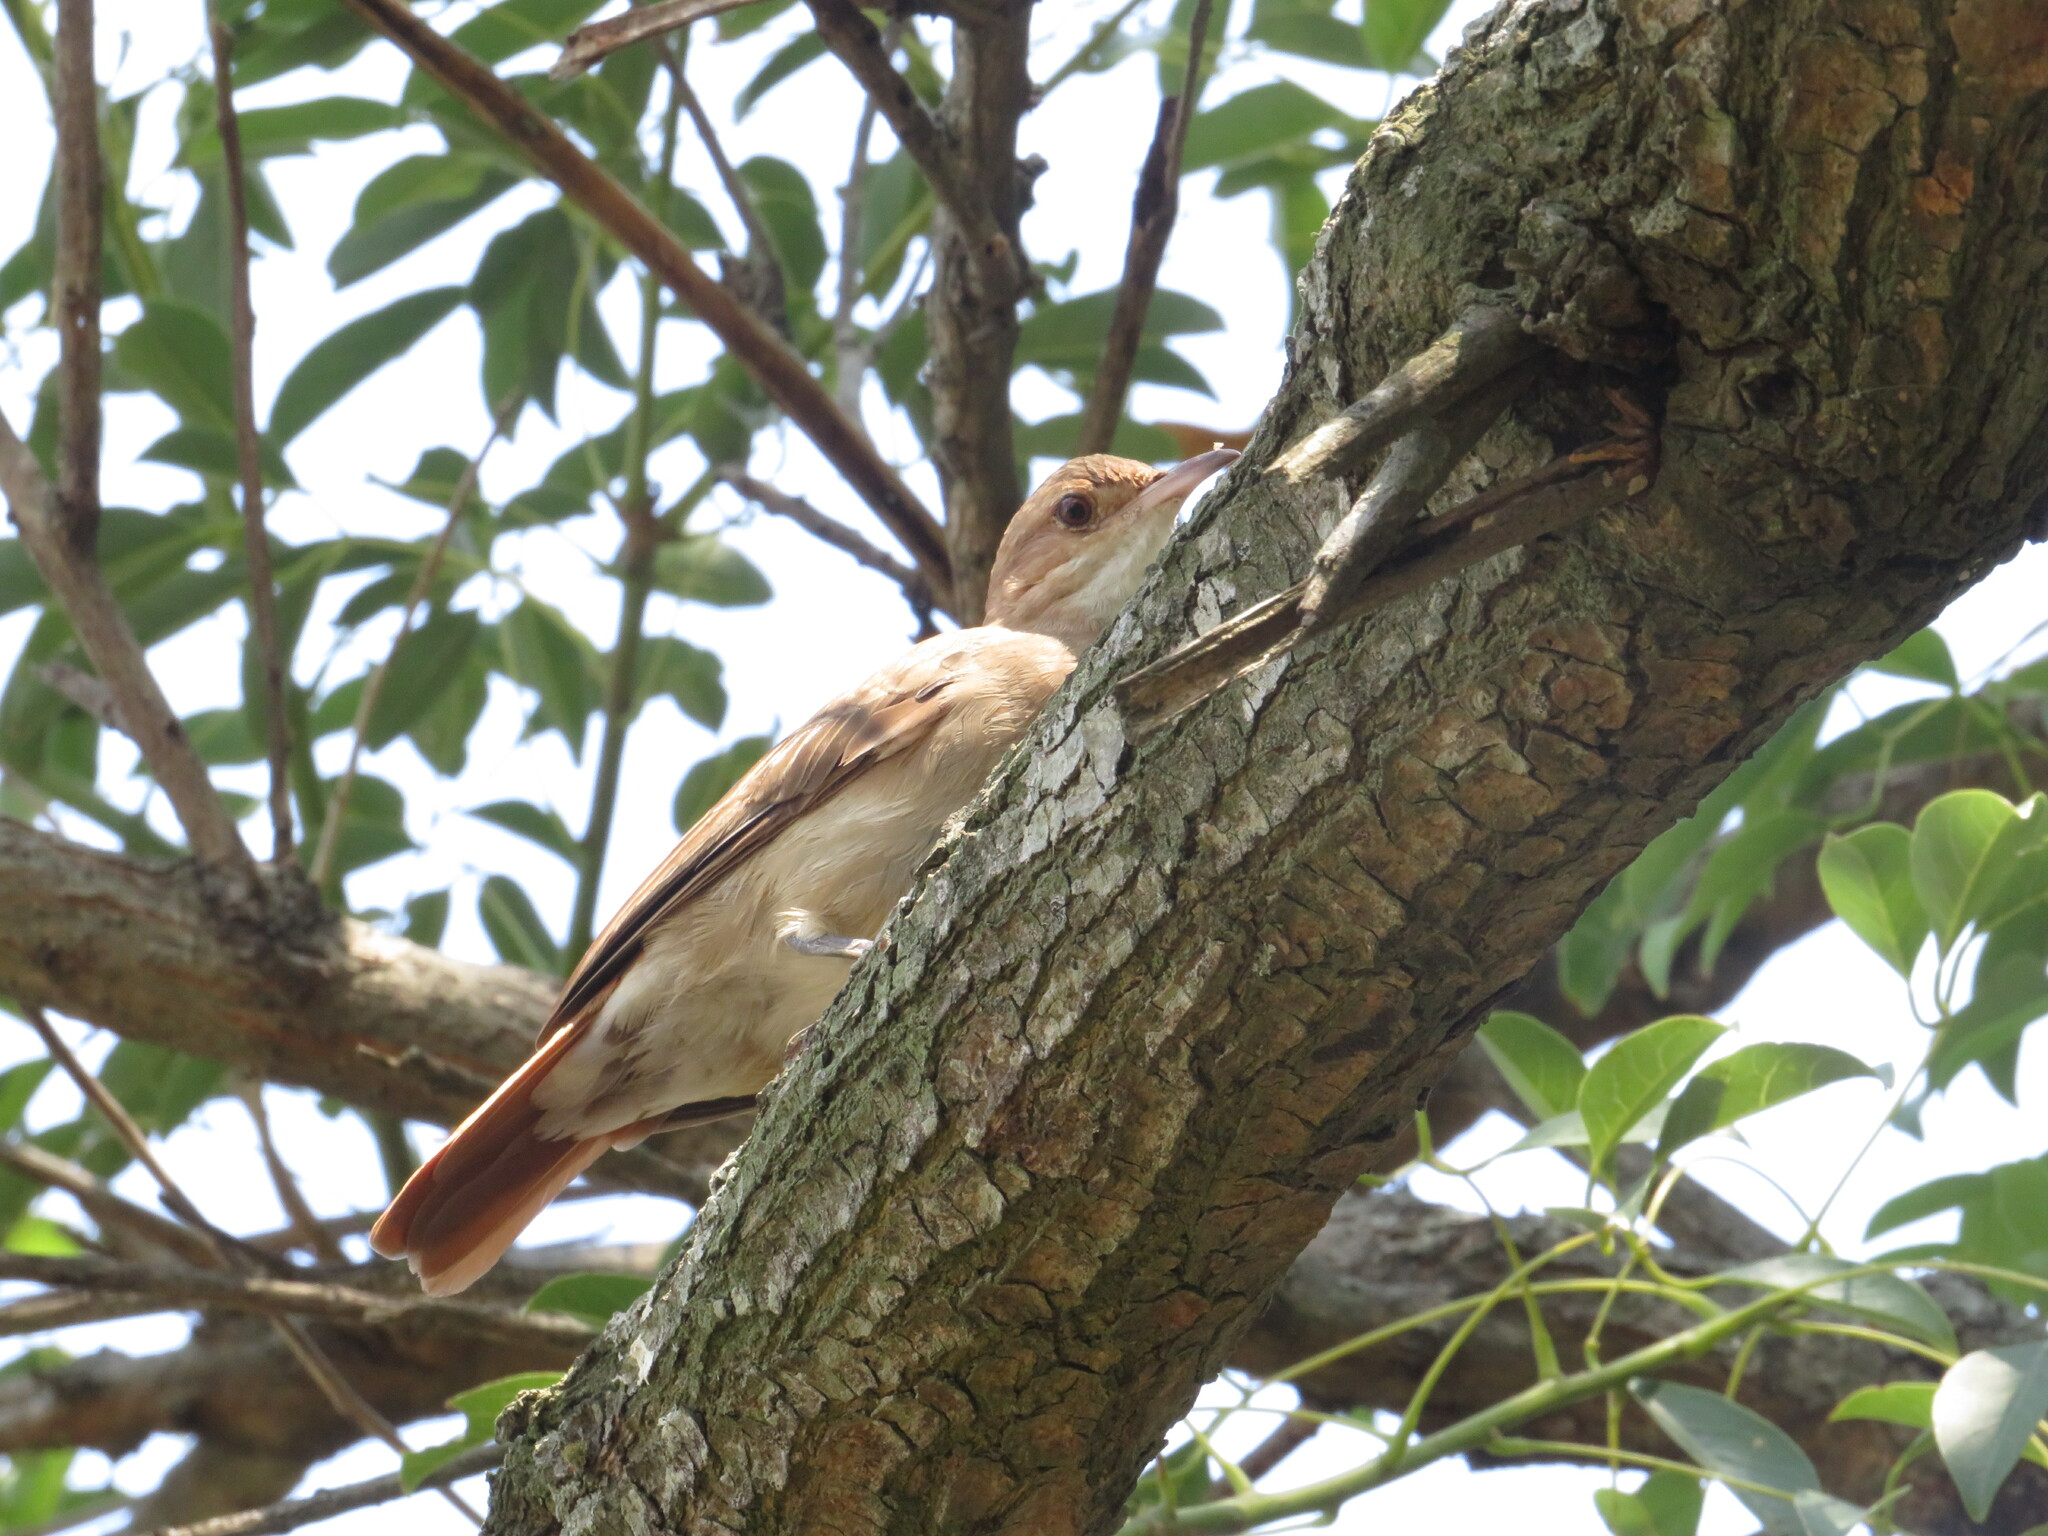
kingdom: Animalia
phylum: Chordata
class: Aves
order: Passeriformes
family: Furnariidae
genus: Furnarius
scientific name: Furnarius rufus
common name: Rufous hornero
